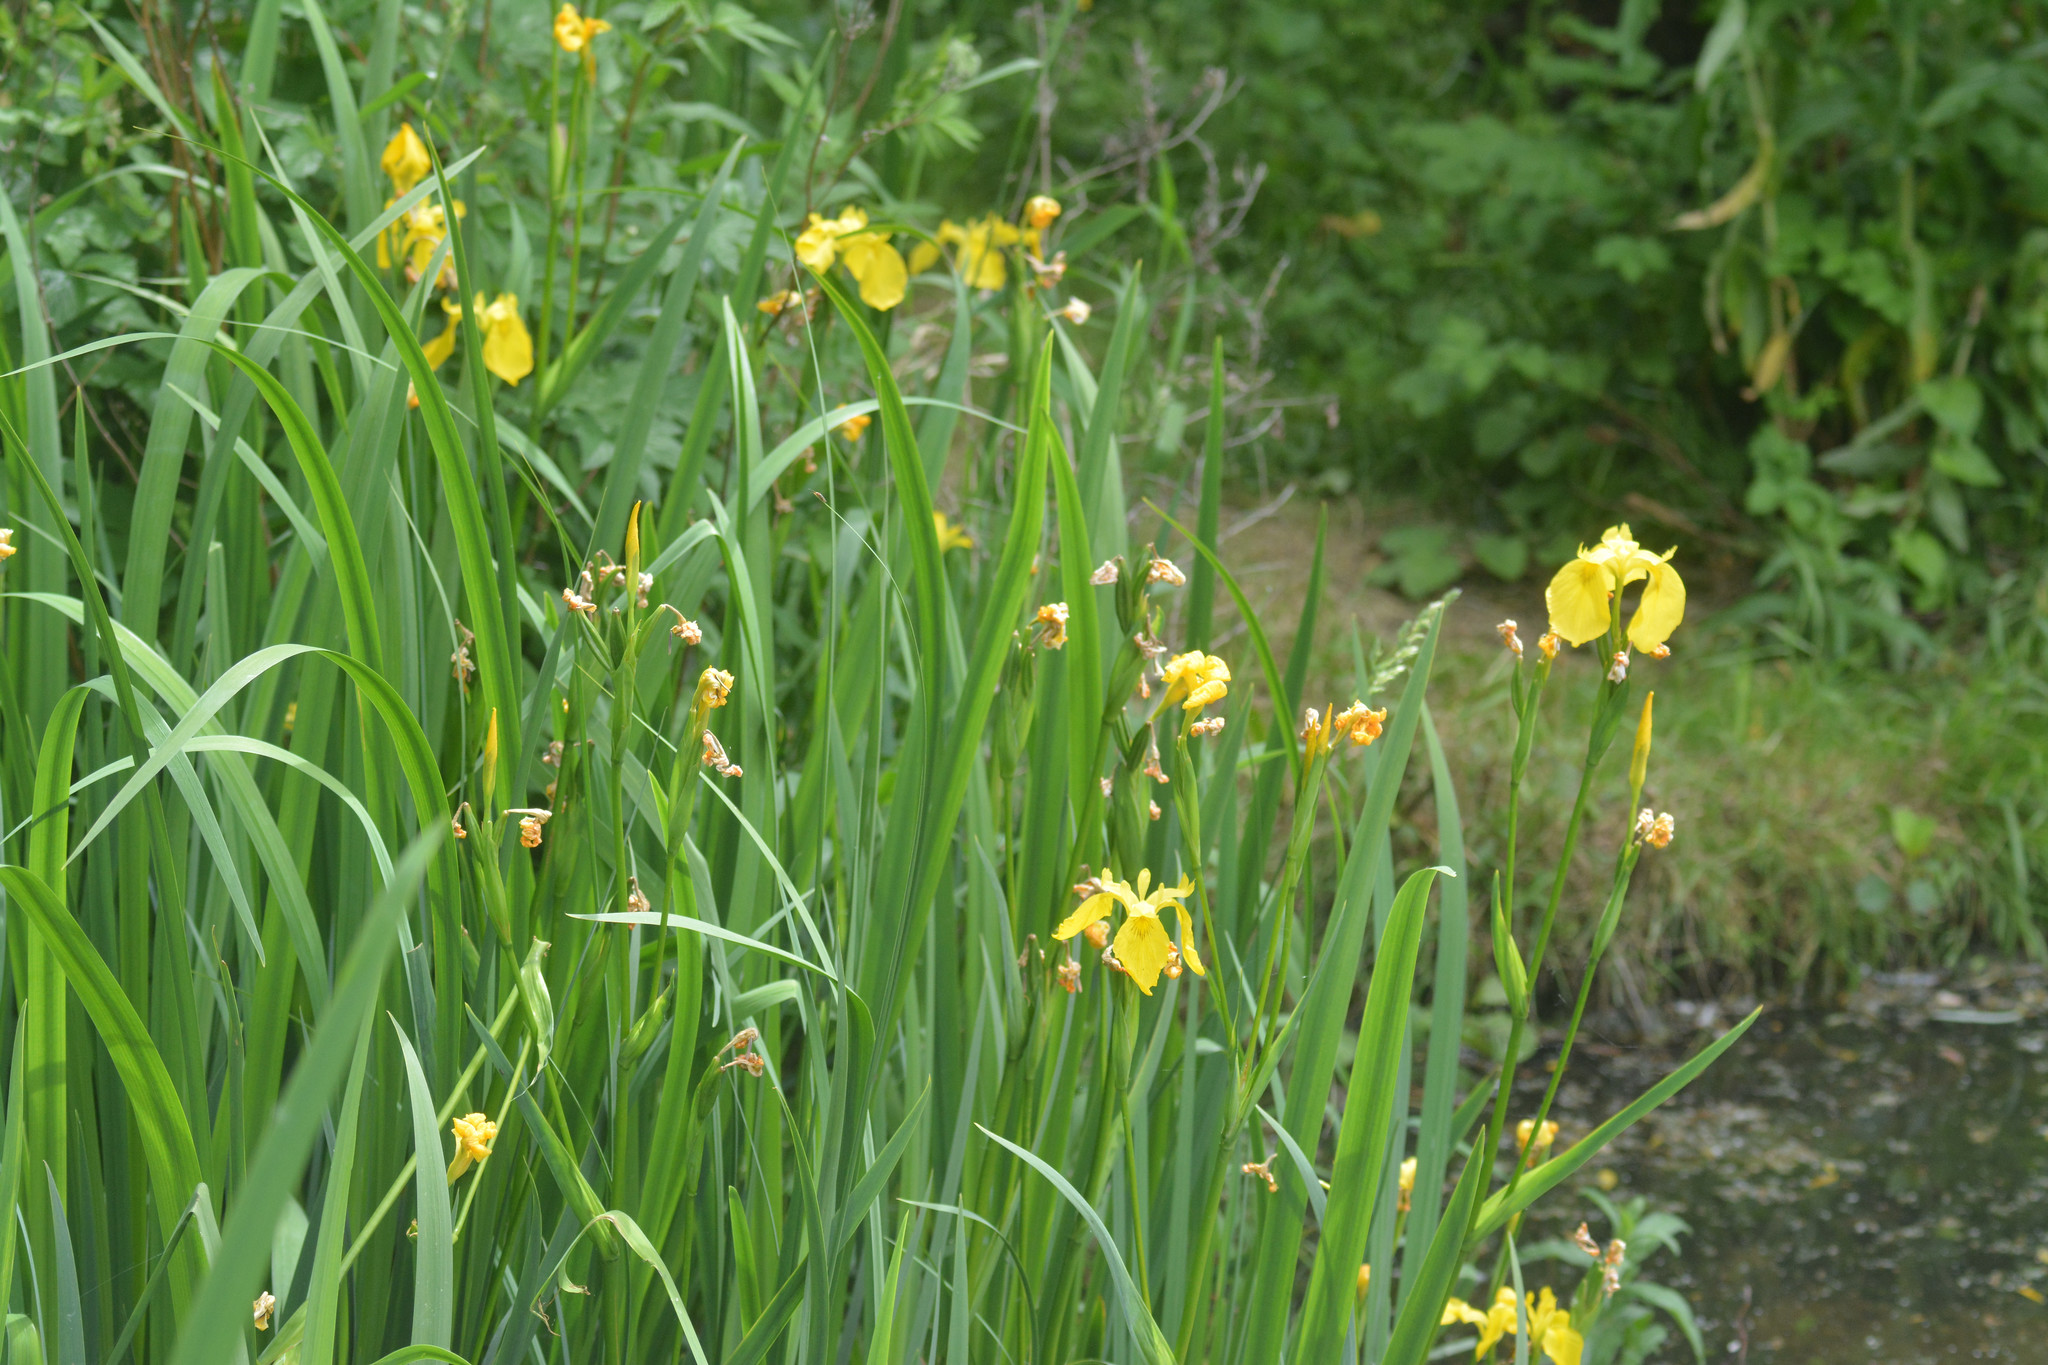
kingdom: Plantae
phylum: Tracheophyta
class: Liliopsida
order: Asparagales
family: Iridaceae
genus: Iris
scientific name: Iris pseudacorus
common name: Yellow flag
